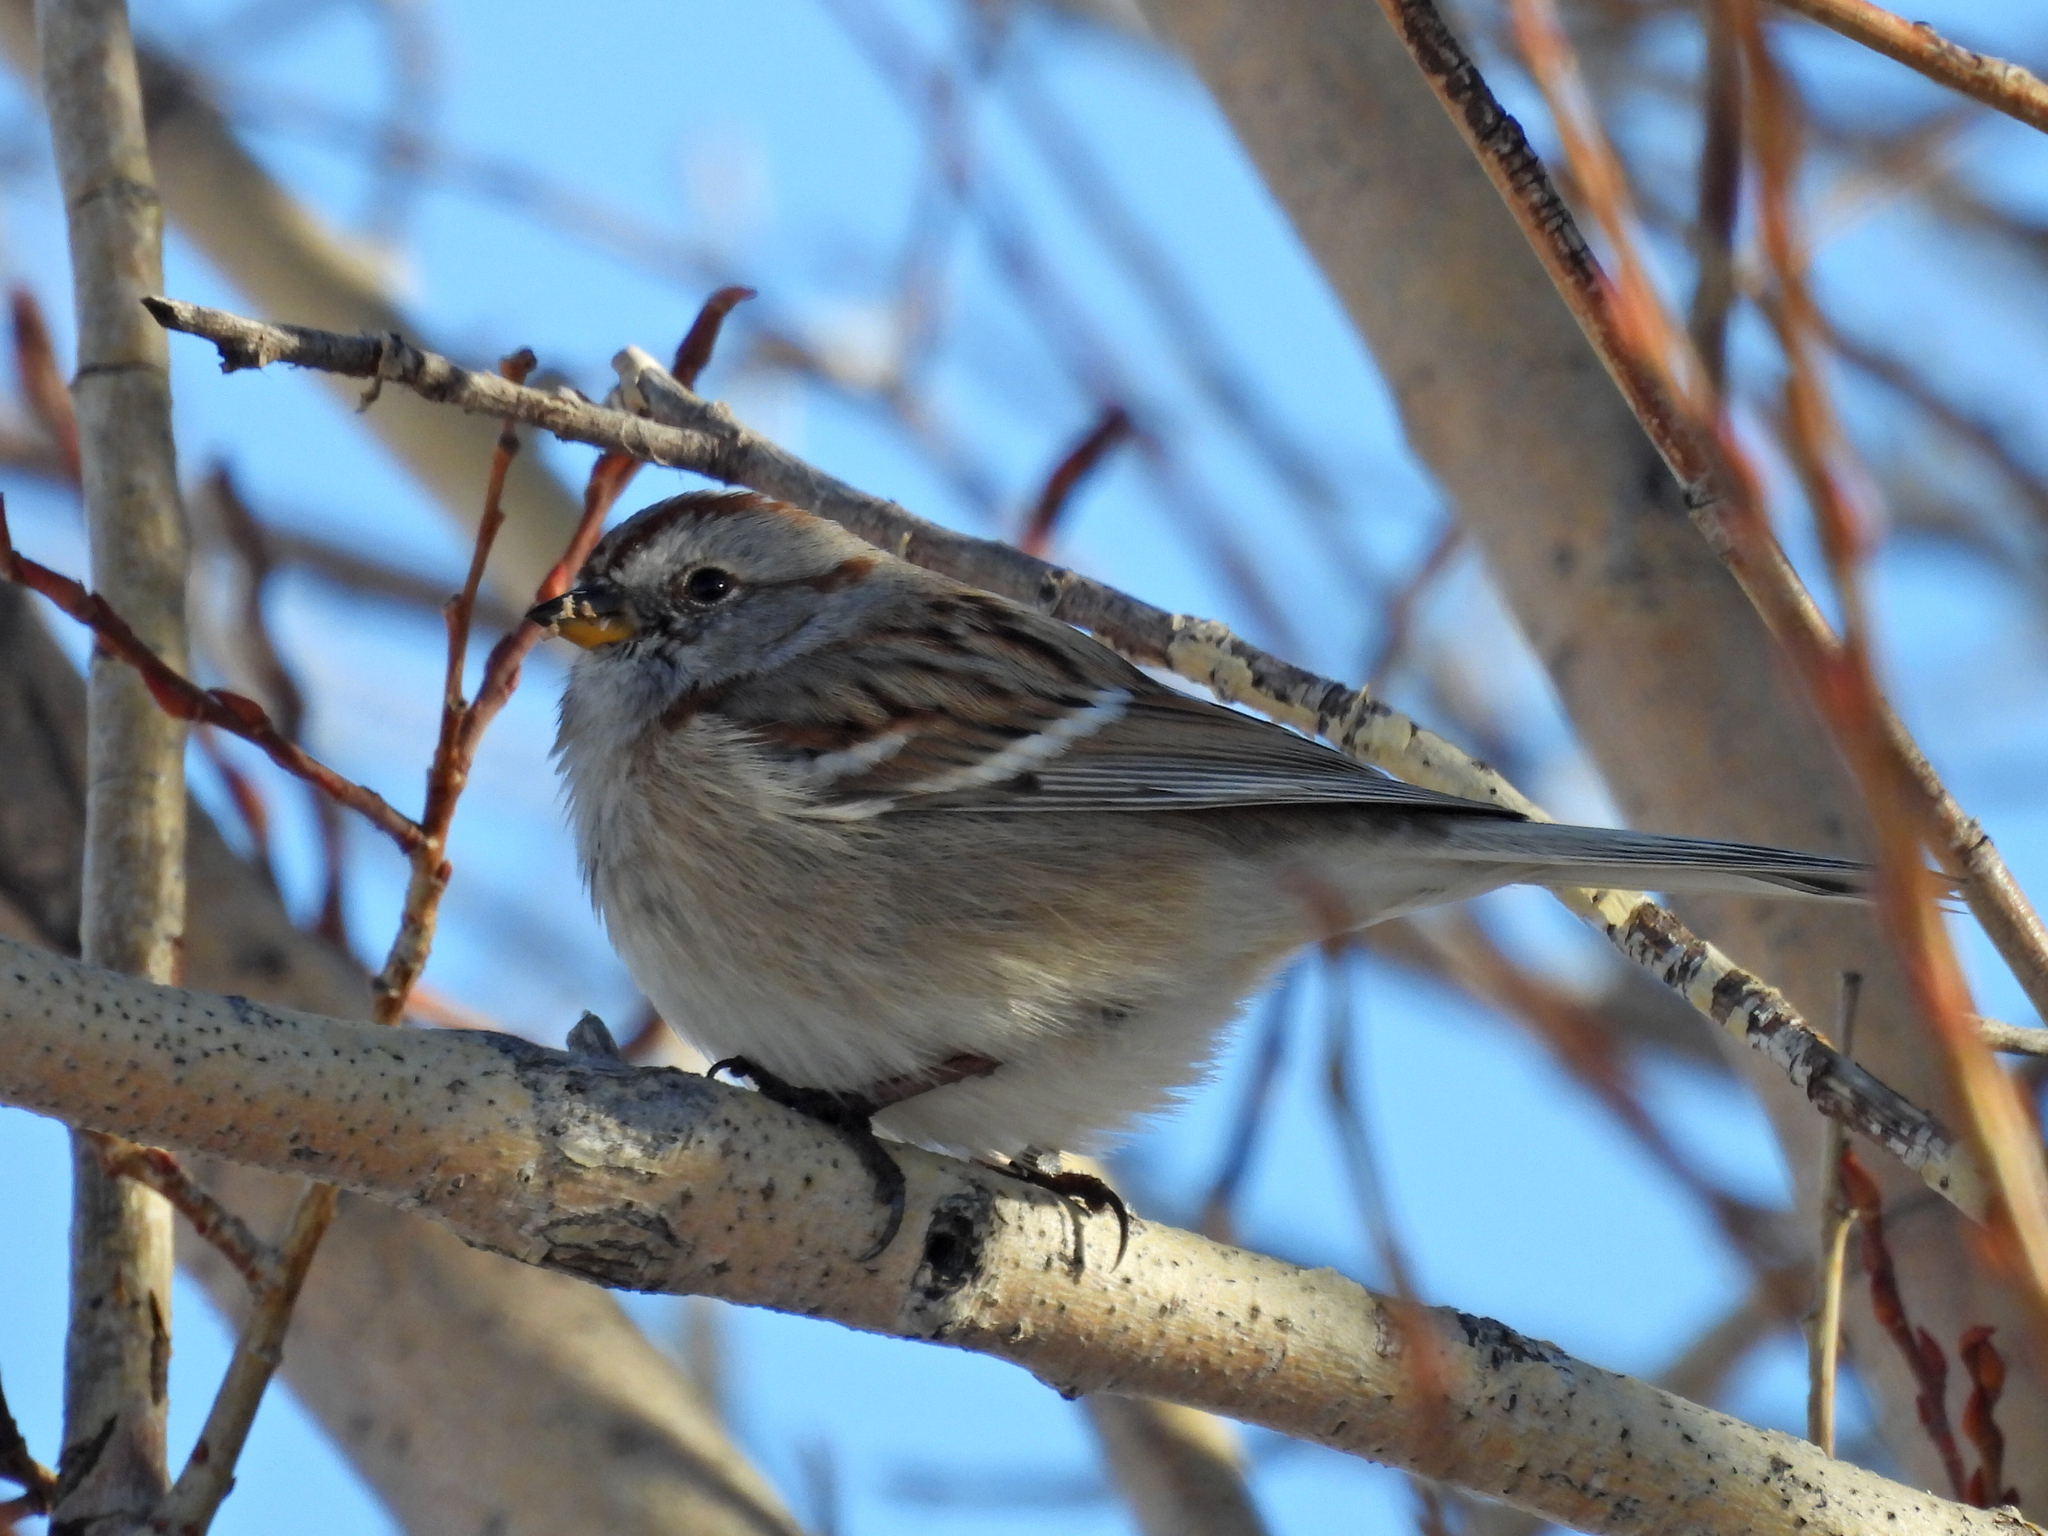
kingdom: Animalia
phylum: Chordata
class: Aves
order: Passeriformes
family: Passerellidae
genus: Spizelloides
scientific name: Spizelloides arborea
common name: American tree sparrow
